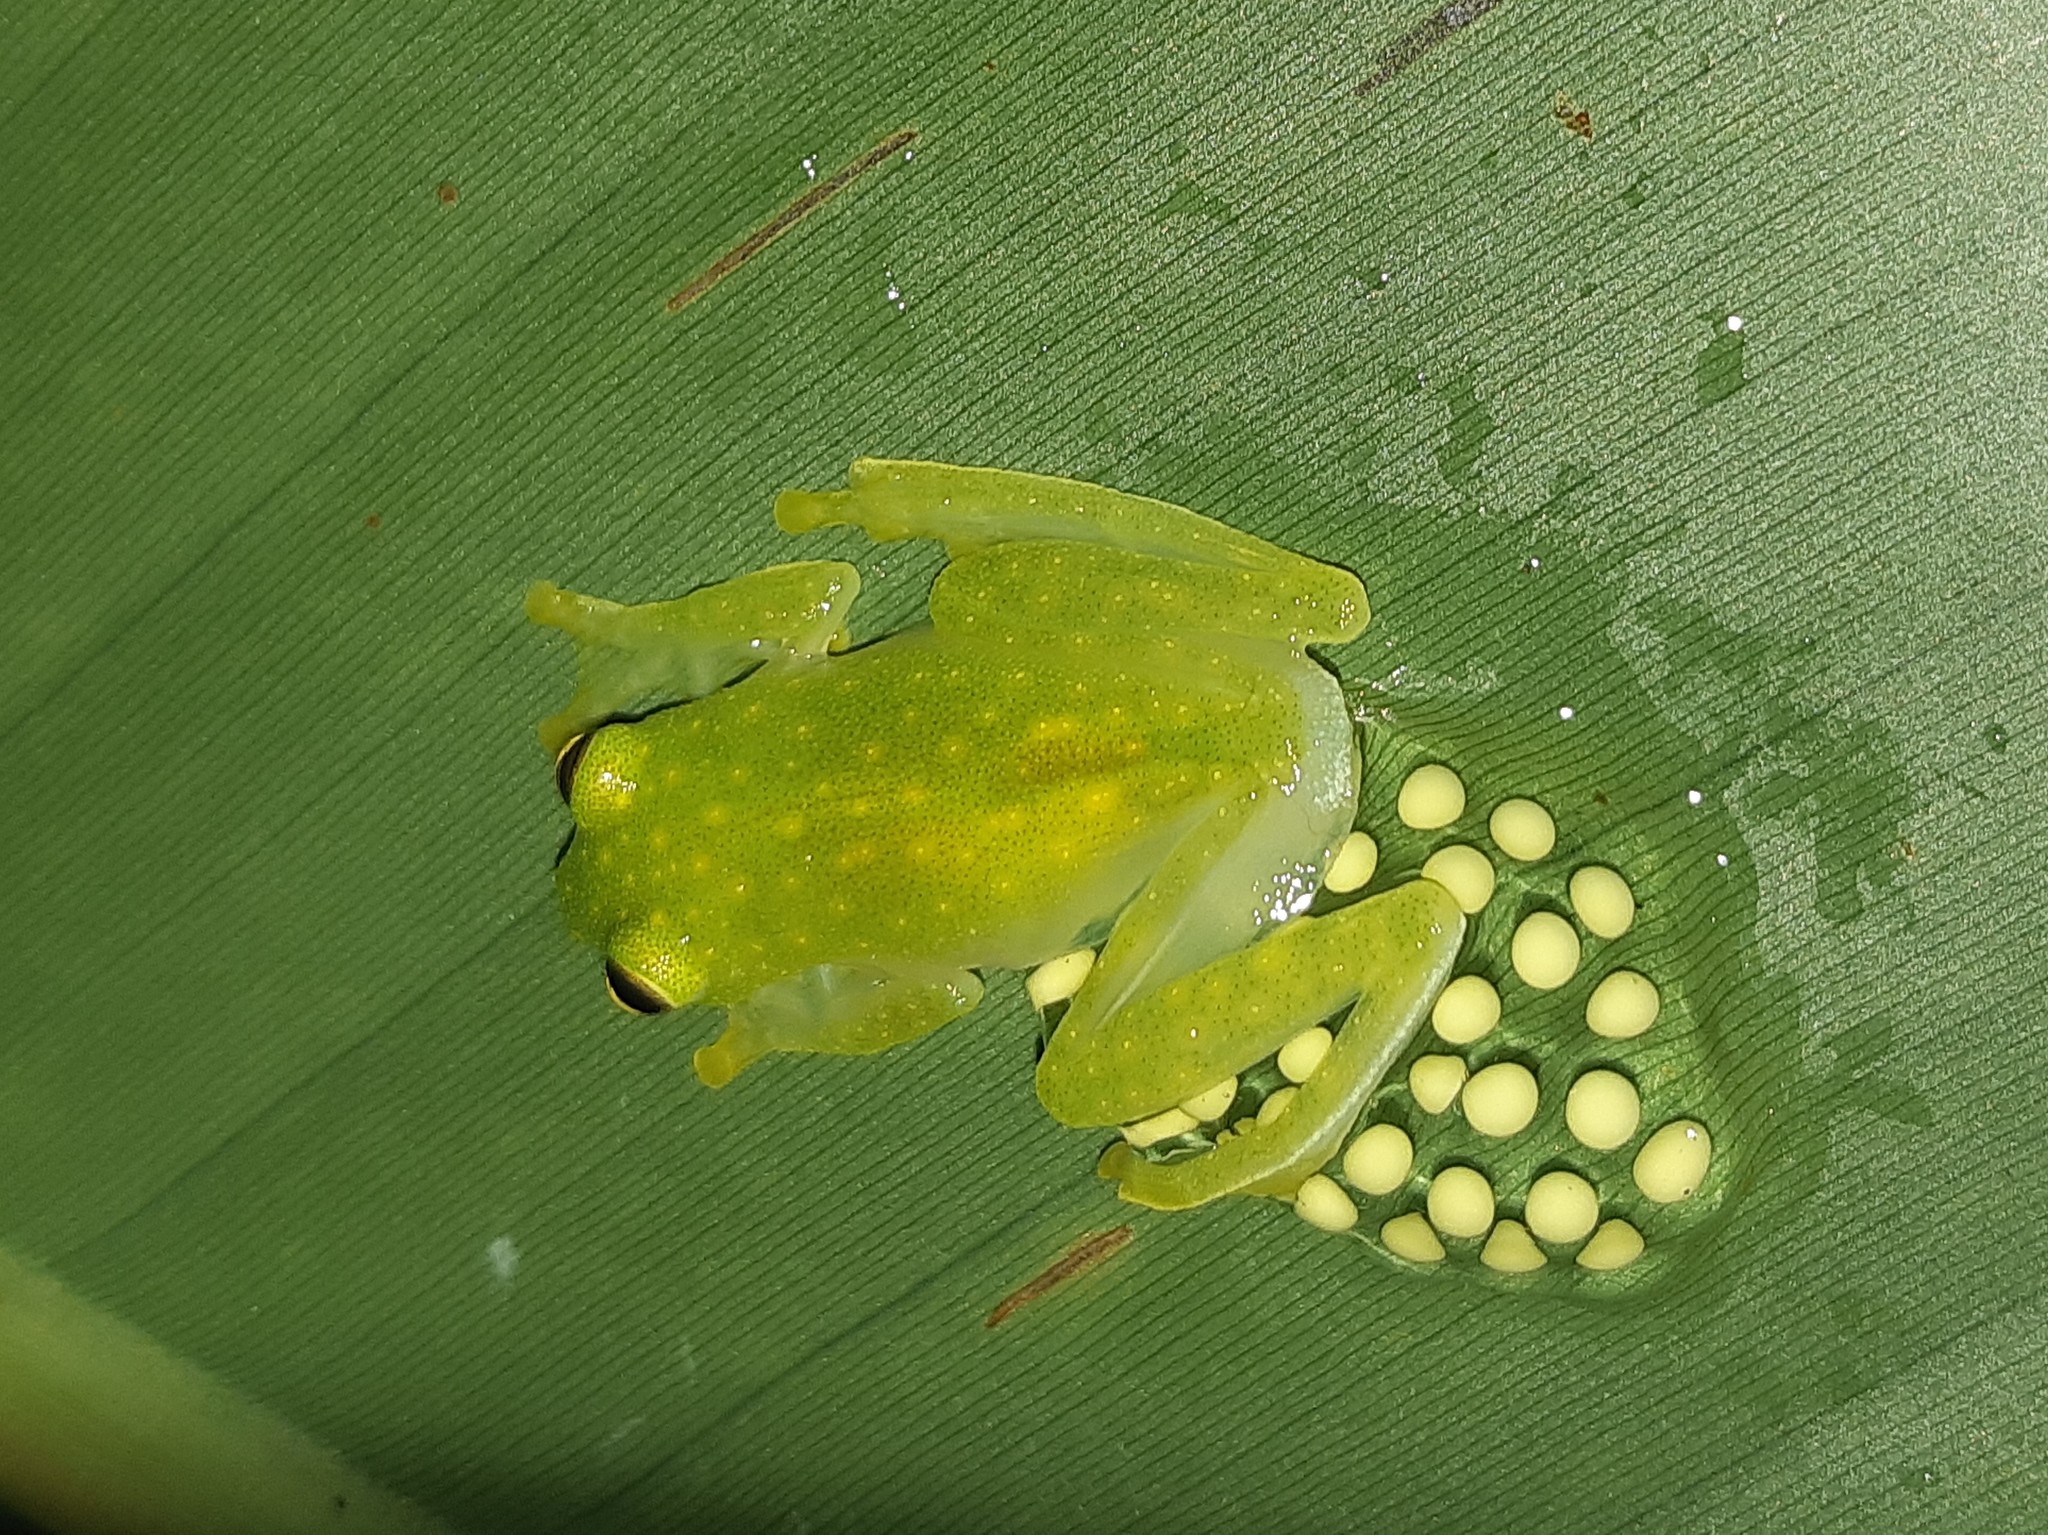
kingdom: Animalia
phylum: Chordata
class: Amphibia
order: Anura
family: Centrolenidae
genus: Hyalinobatrachium
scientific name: Hyalinobatrachium tatayoi
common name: Tatayo’s glass frog
